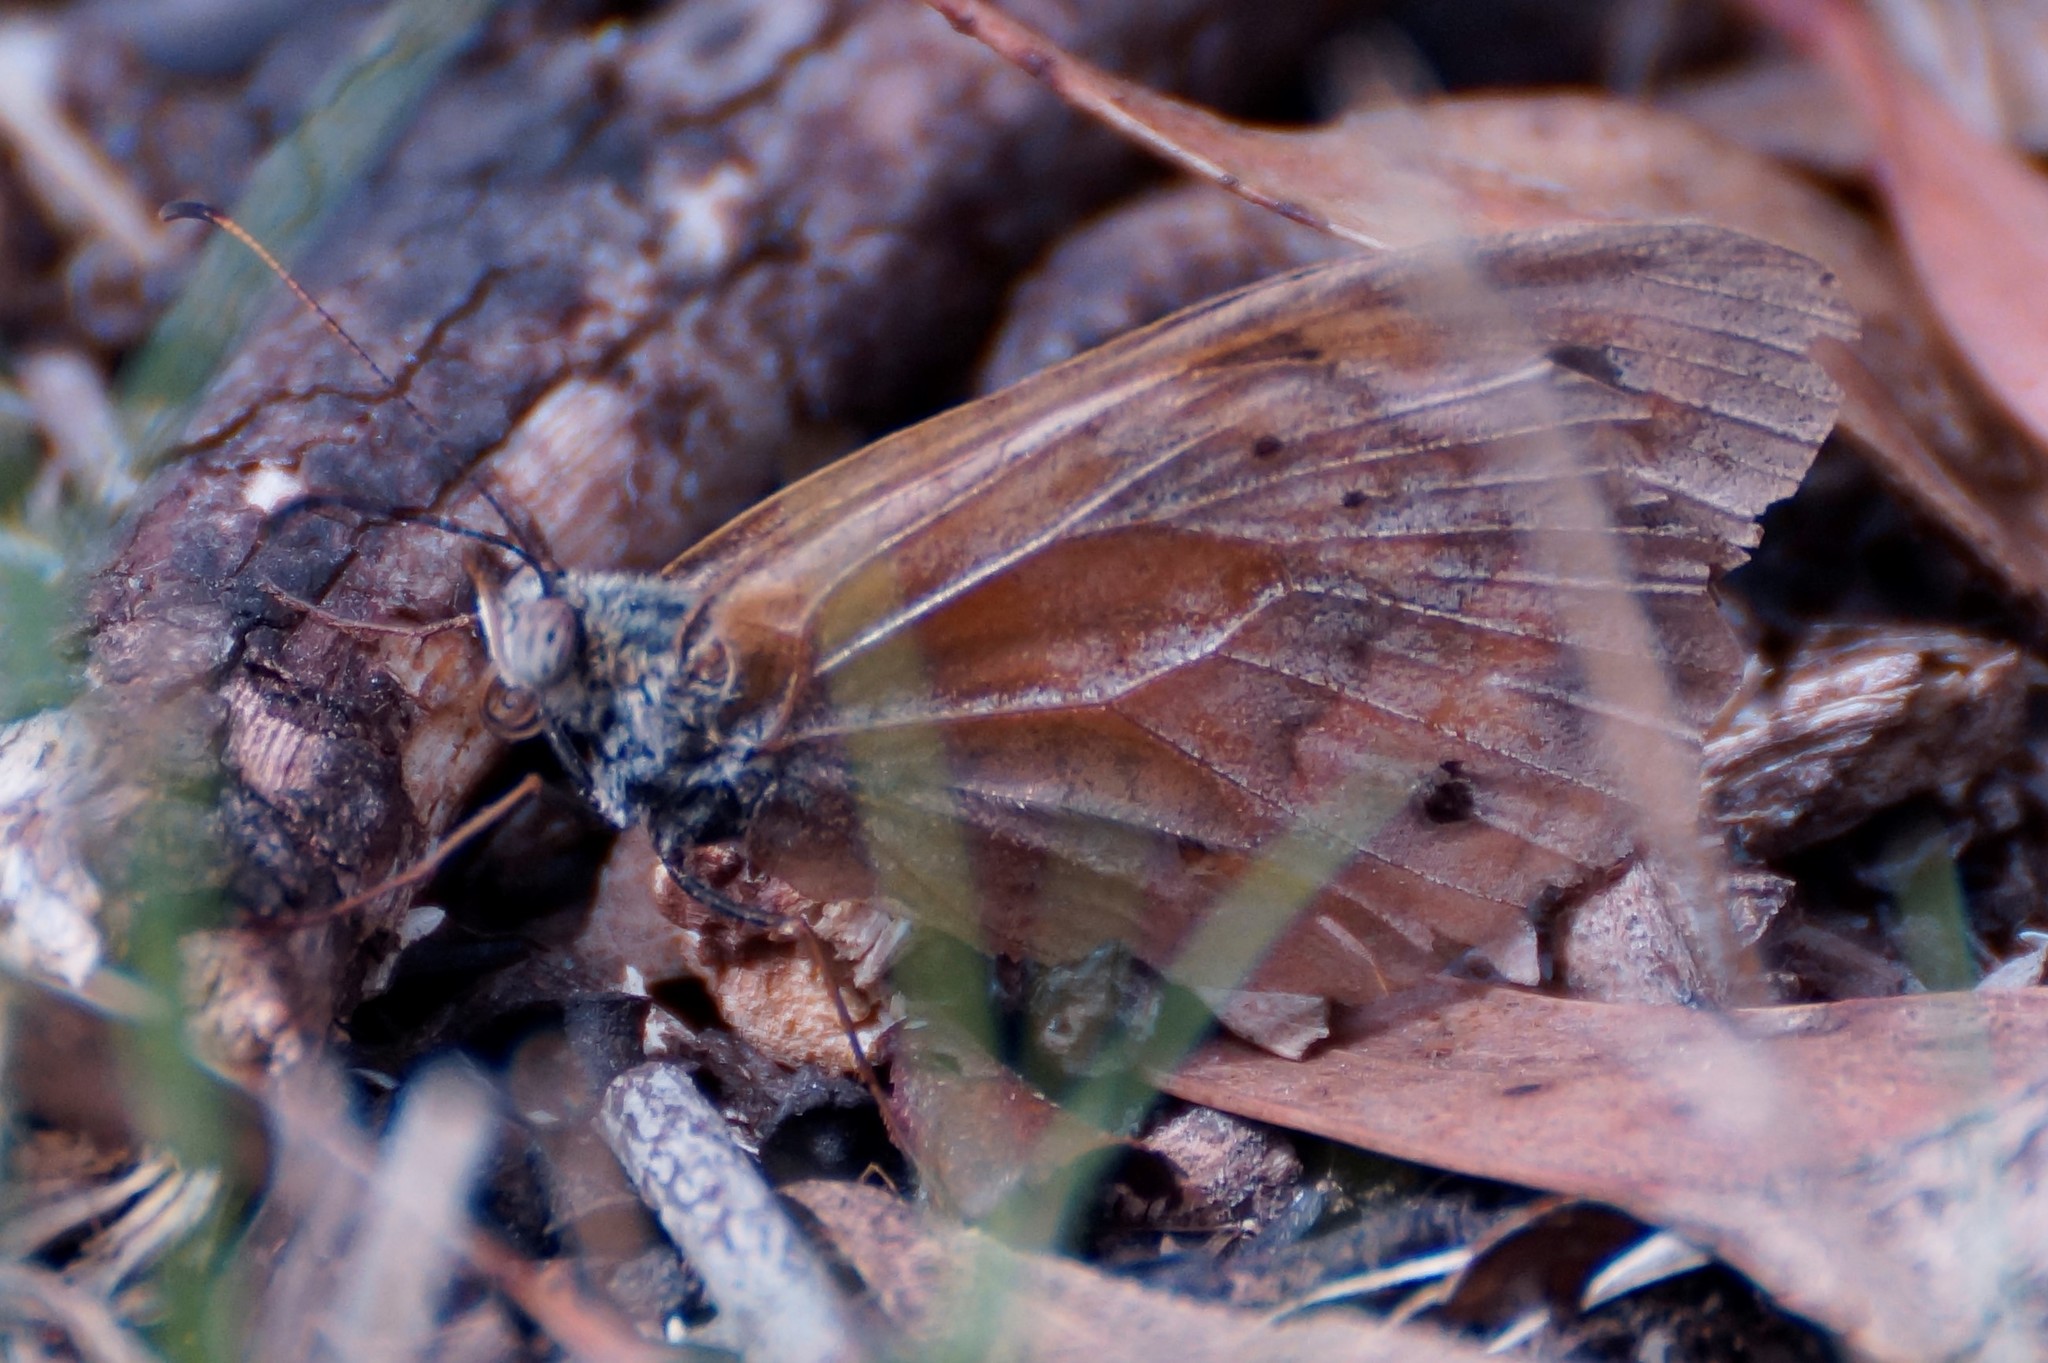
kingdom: Animalia
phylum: Arthropoda
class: Insecta
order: Lepidoptera
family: Nymphalidae
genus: Geitoneura
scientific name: Geitoneura klugii
